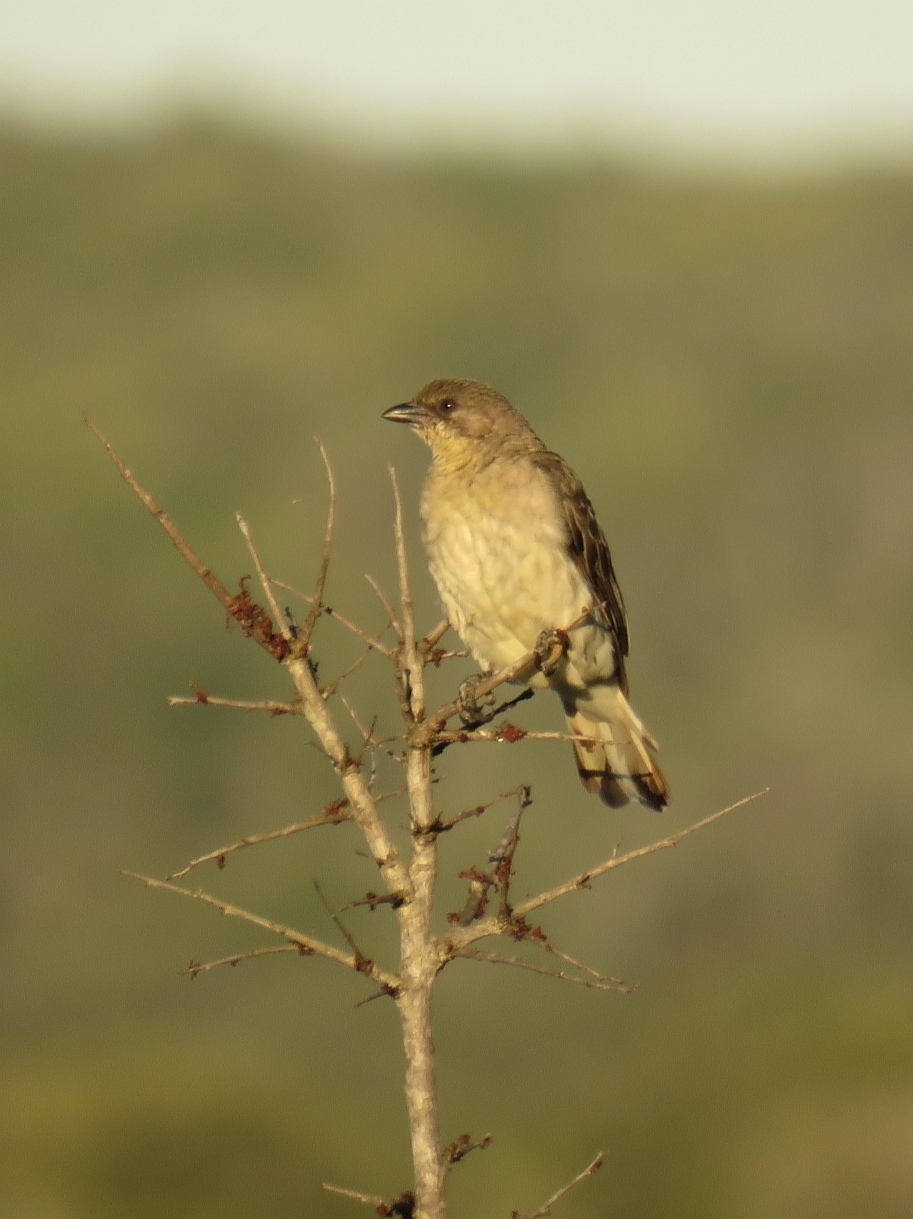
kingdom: Animalia
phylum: Chordata
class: Aves
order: Piciformes
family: Indicatoridae
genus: Indicator
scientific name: Indicator indicator
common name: Greater honeyguide
